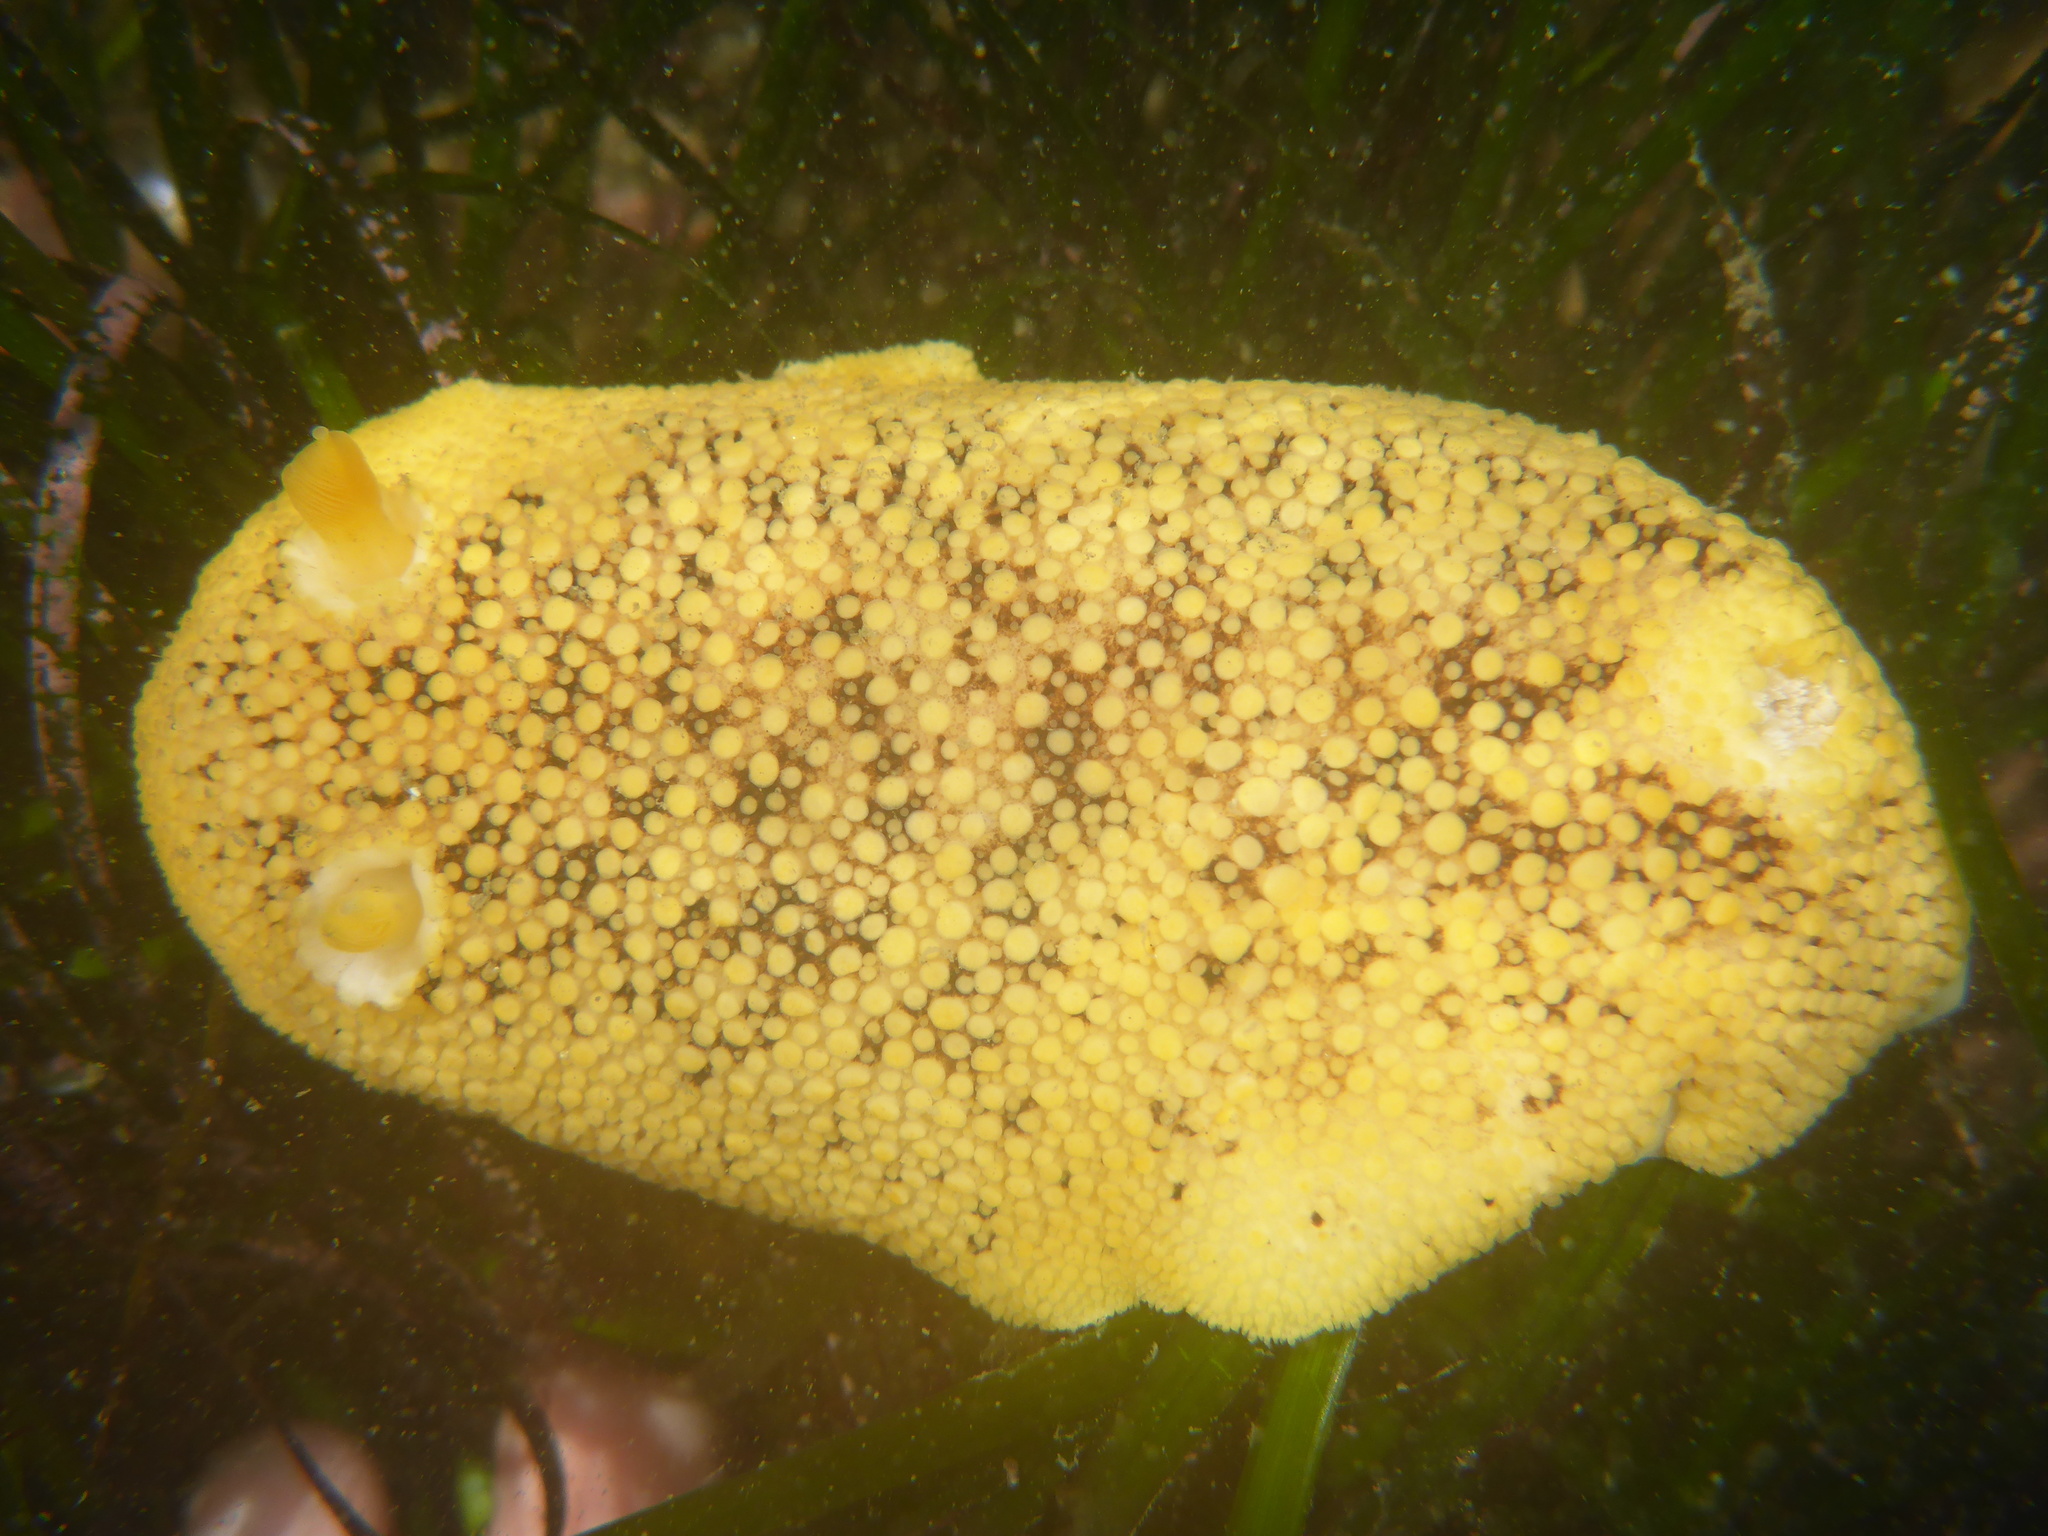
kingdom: Animalia
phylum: Mollusca
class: Gastropoda
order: Nudibranchia
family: Discodorididae
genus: Peltodoris
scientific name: Peltodoris nobilis
